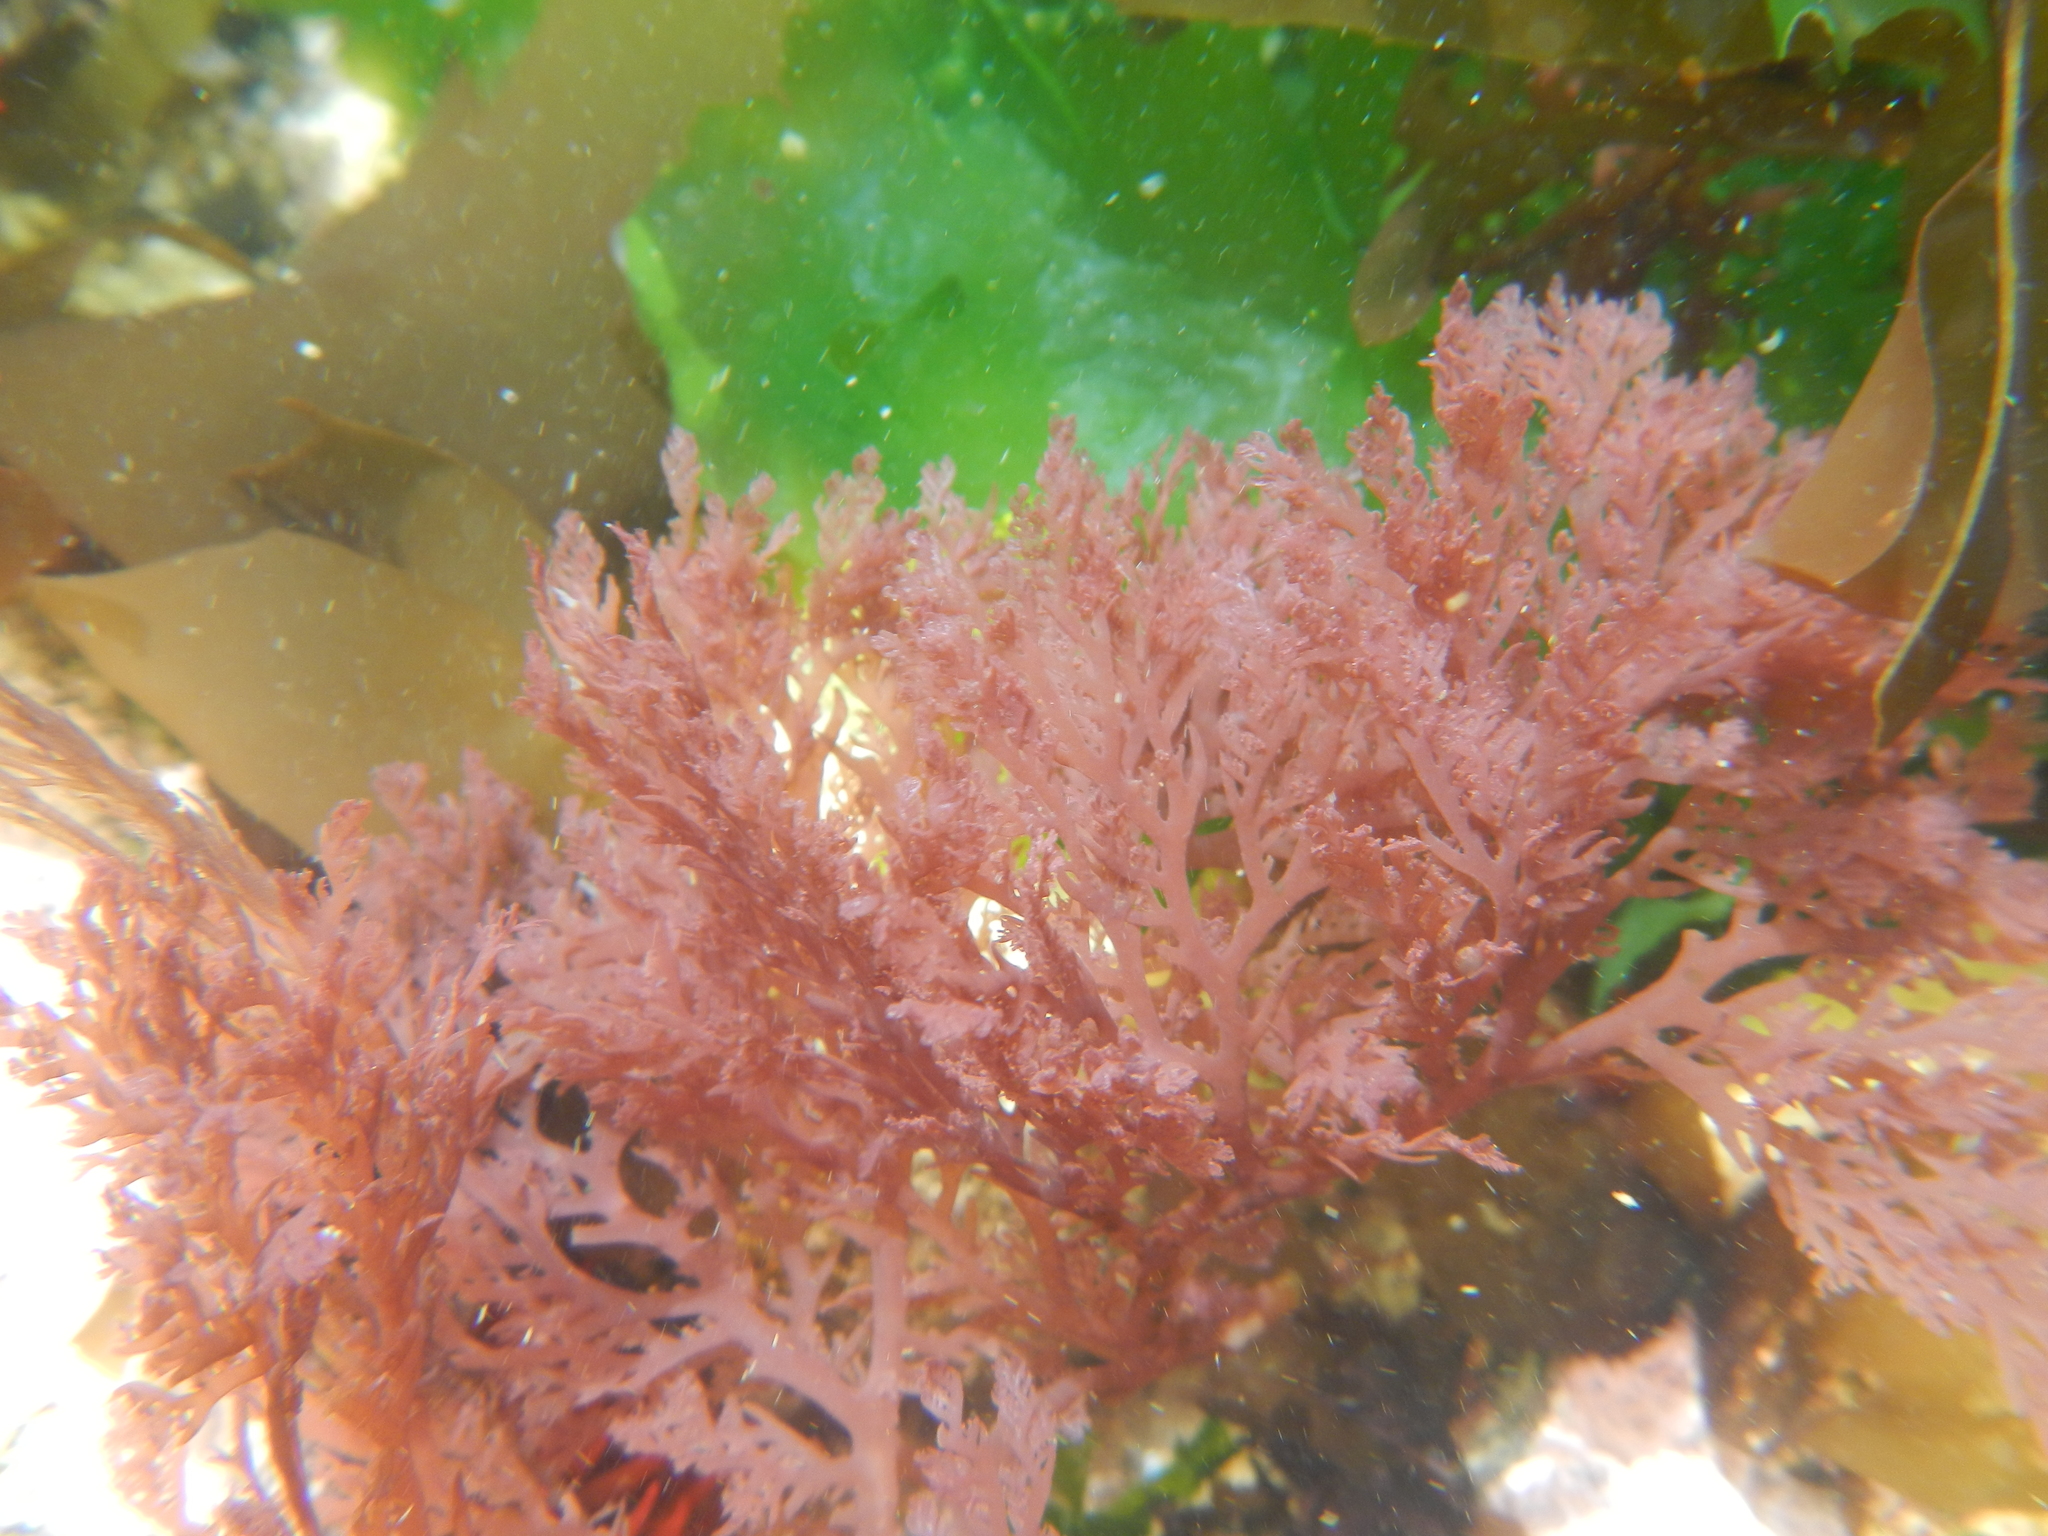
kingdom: Plantae
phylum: Rhodophyta
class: Florideophyceae
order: Plocamiales
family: Plocamiaceae
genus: Plocamium
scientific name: Plocamium cartilagineum
